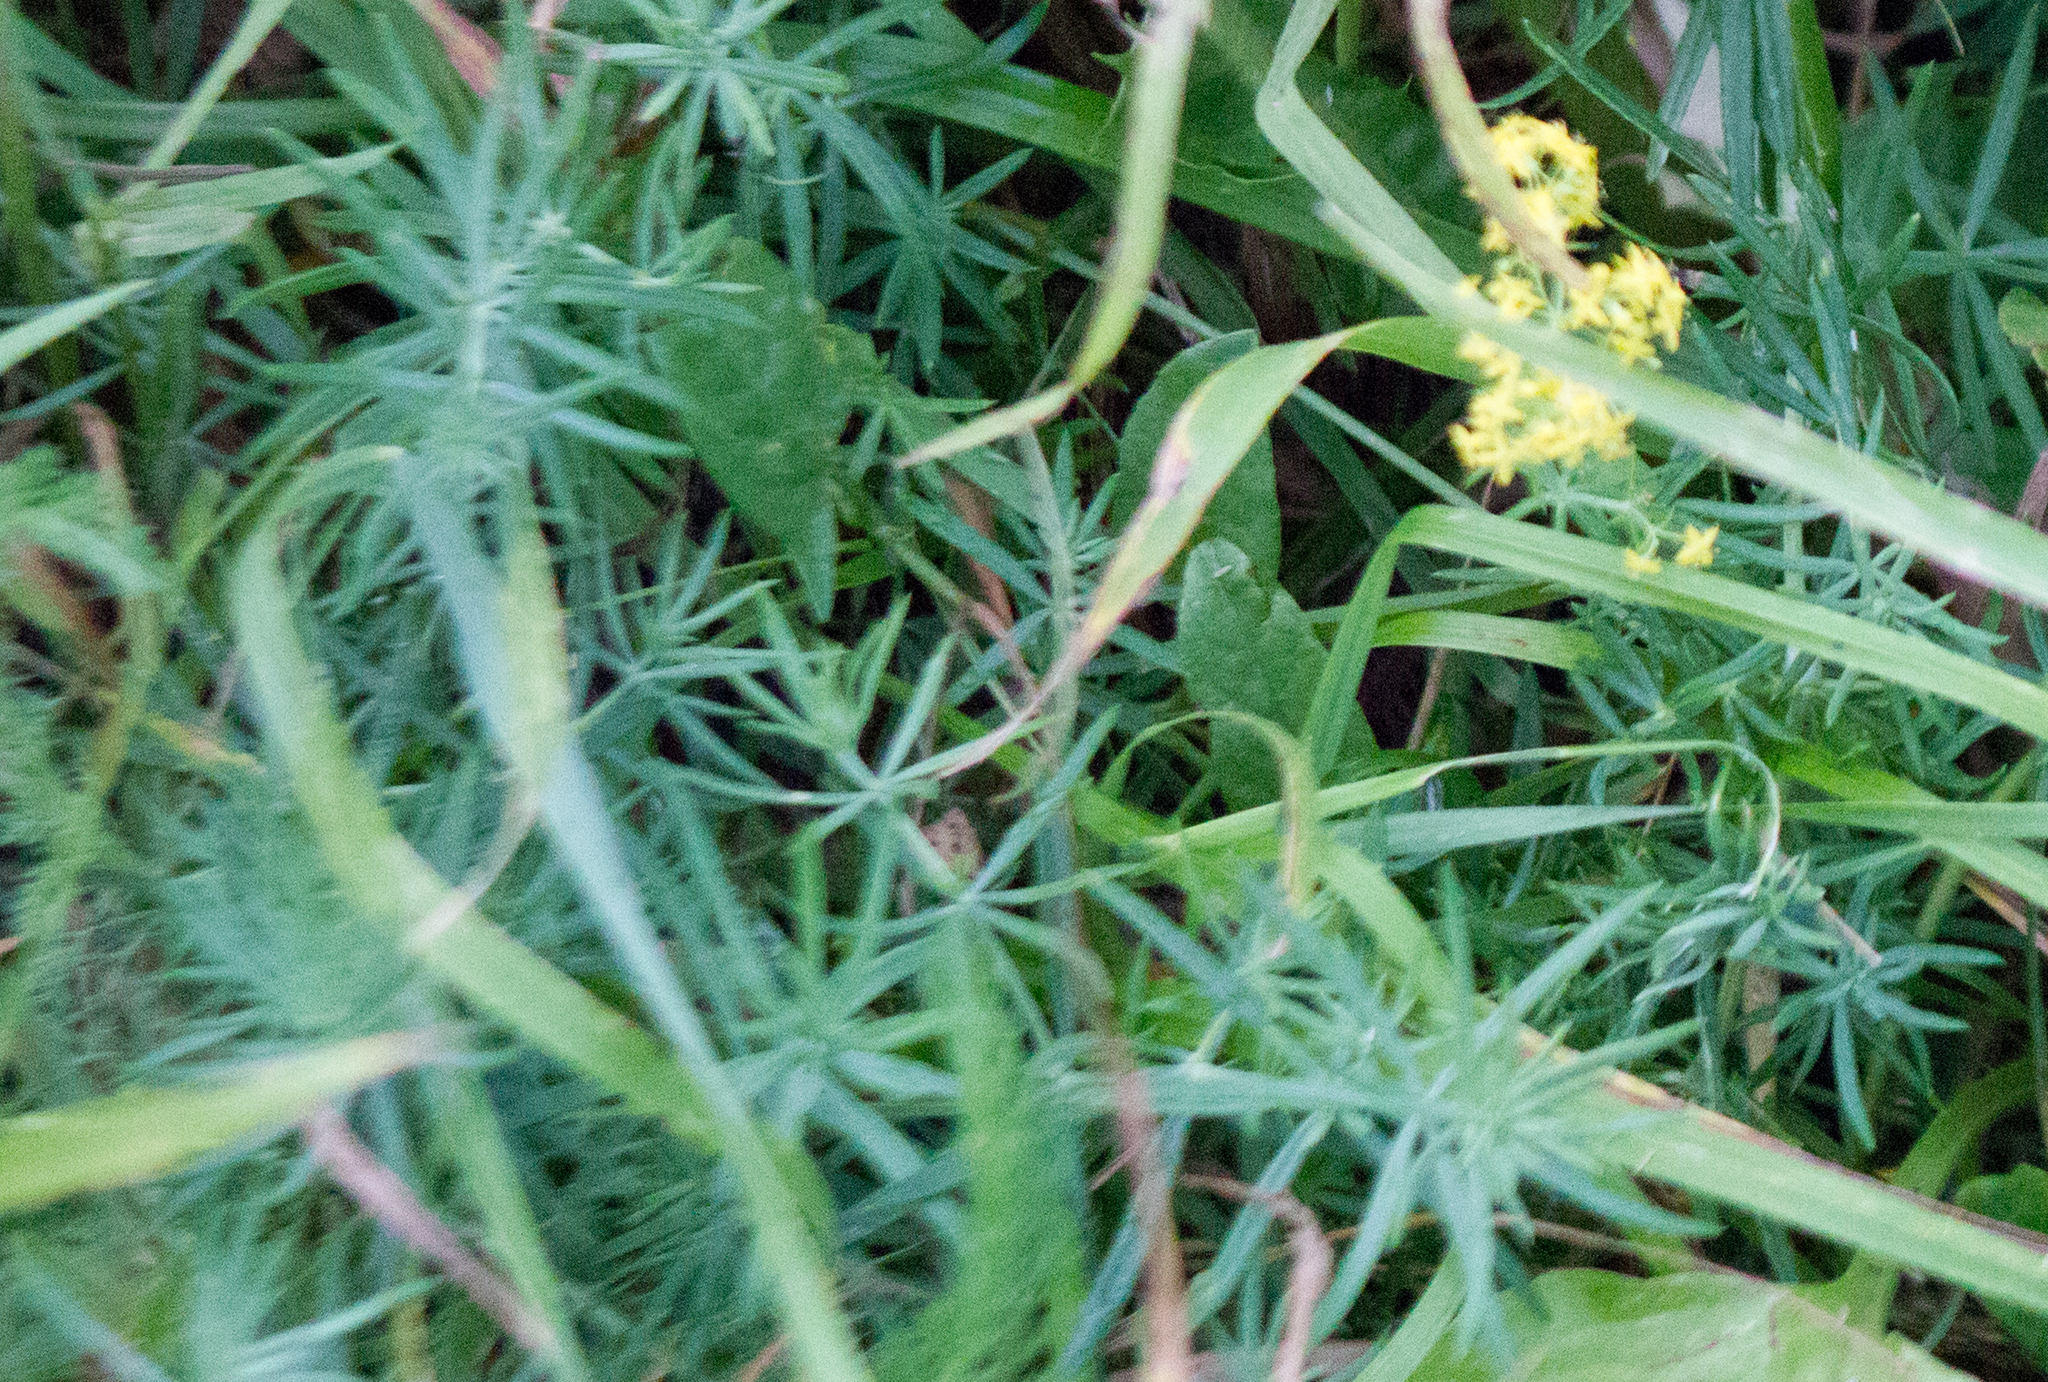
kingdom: Plantae
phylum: Tracheophyta
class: Magnoliopsida
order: Gentianales
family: Rubiaceae
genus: Galium
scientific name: Galium verum
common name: Lady's bedstraw
